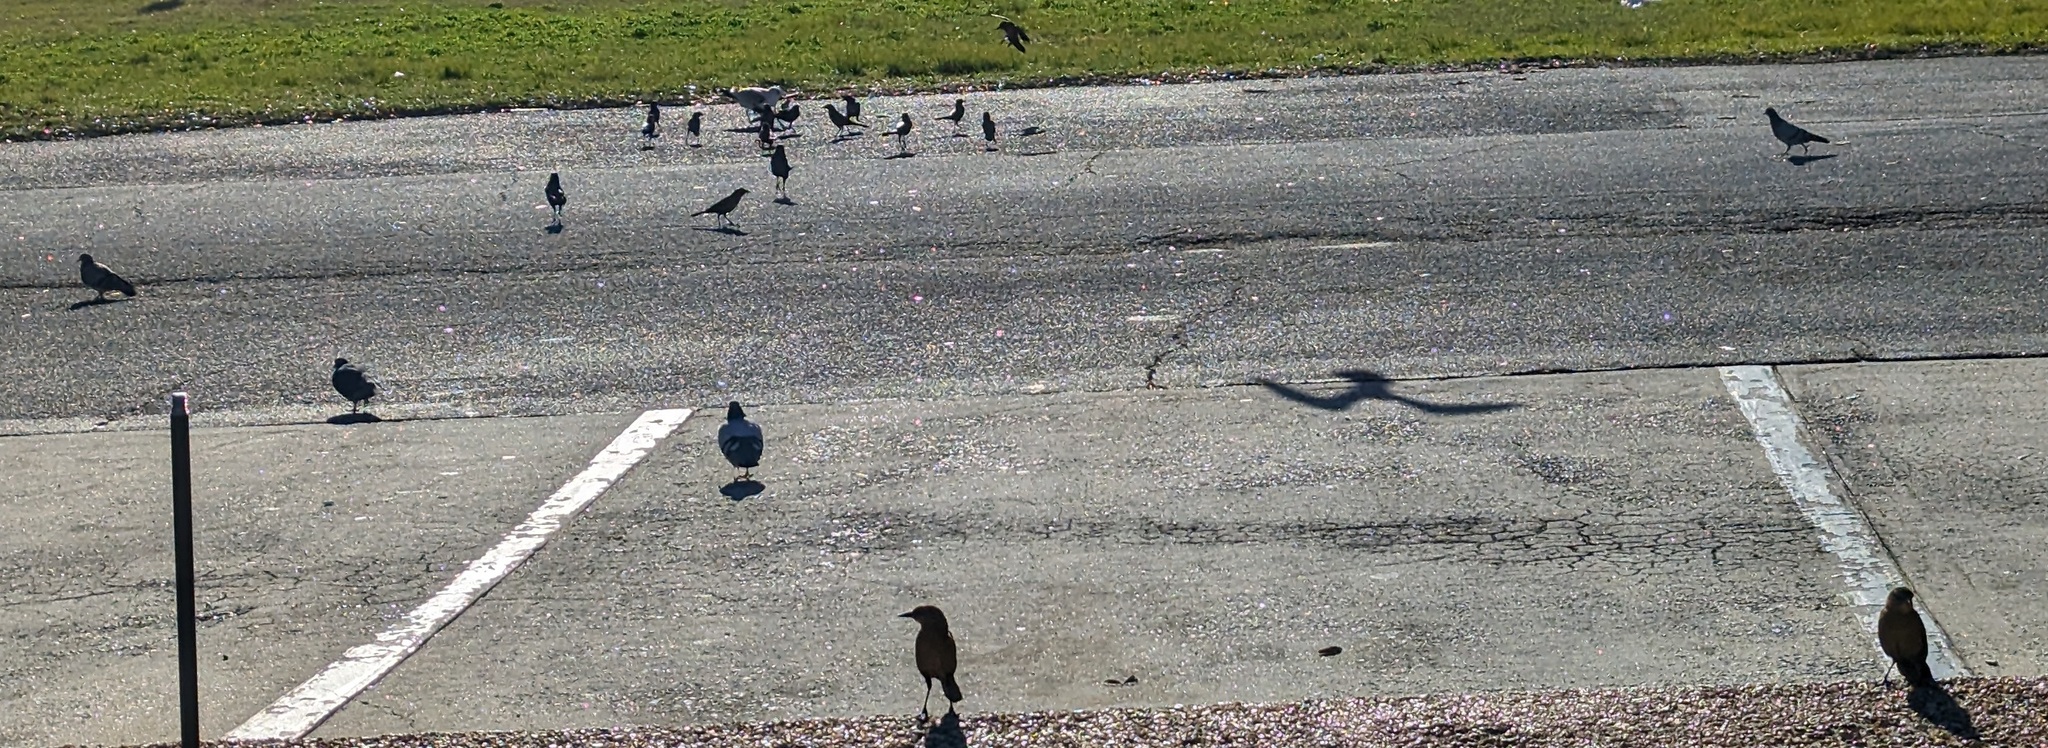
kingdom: Animalia
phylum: Chordata
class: Aves
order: Charadriiformes
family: Laridae
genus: Larus
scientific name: Larus delawarensis
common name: Ring-billed gull
